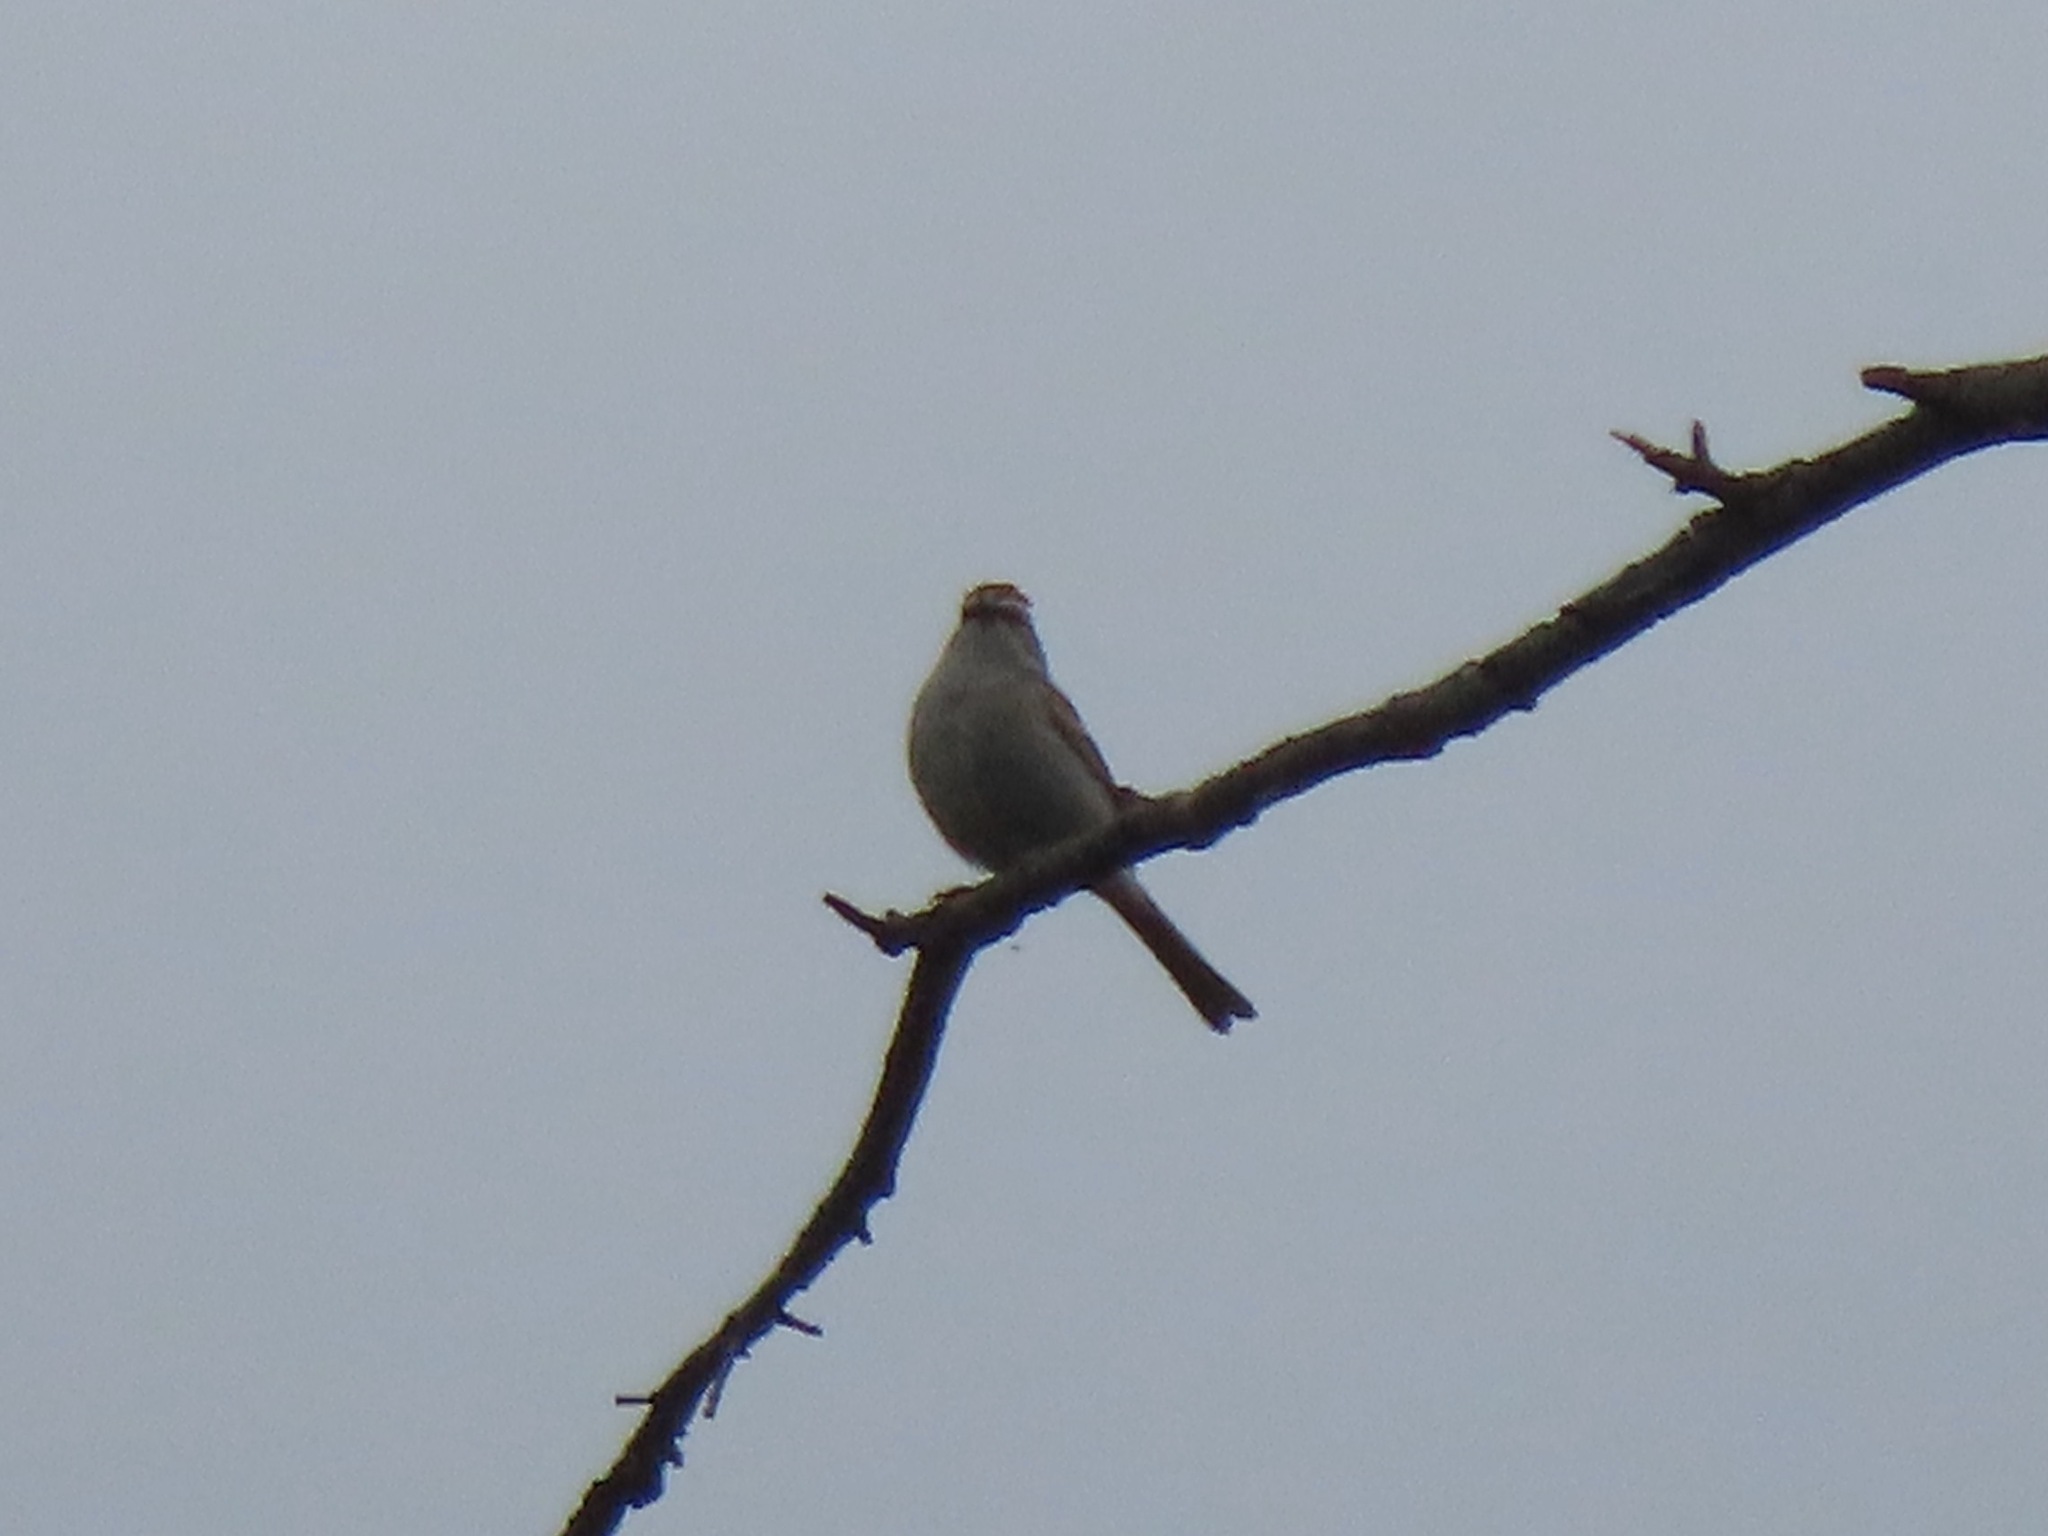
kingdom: Animalia
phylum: Chordata
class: Aves
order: Passeriformes
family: Passerellidae
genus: Spizella
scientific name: Spizella passerina
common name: Chipping sparrow
